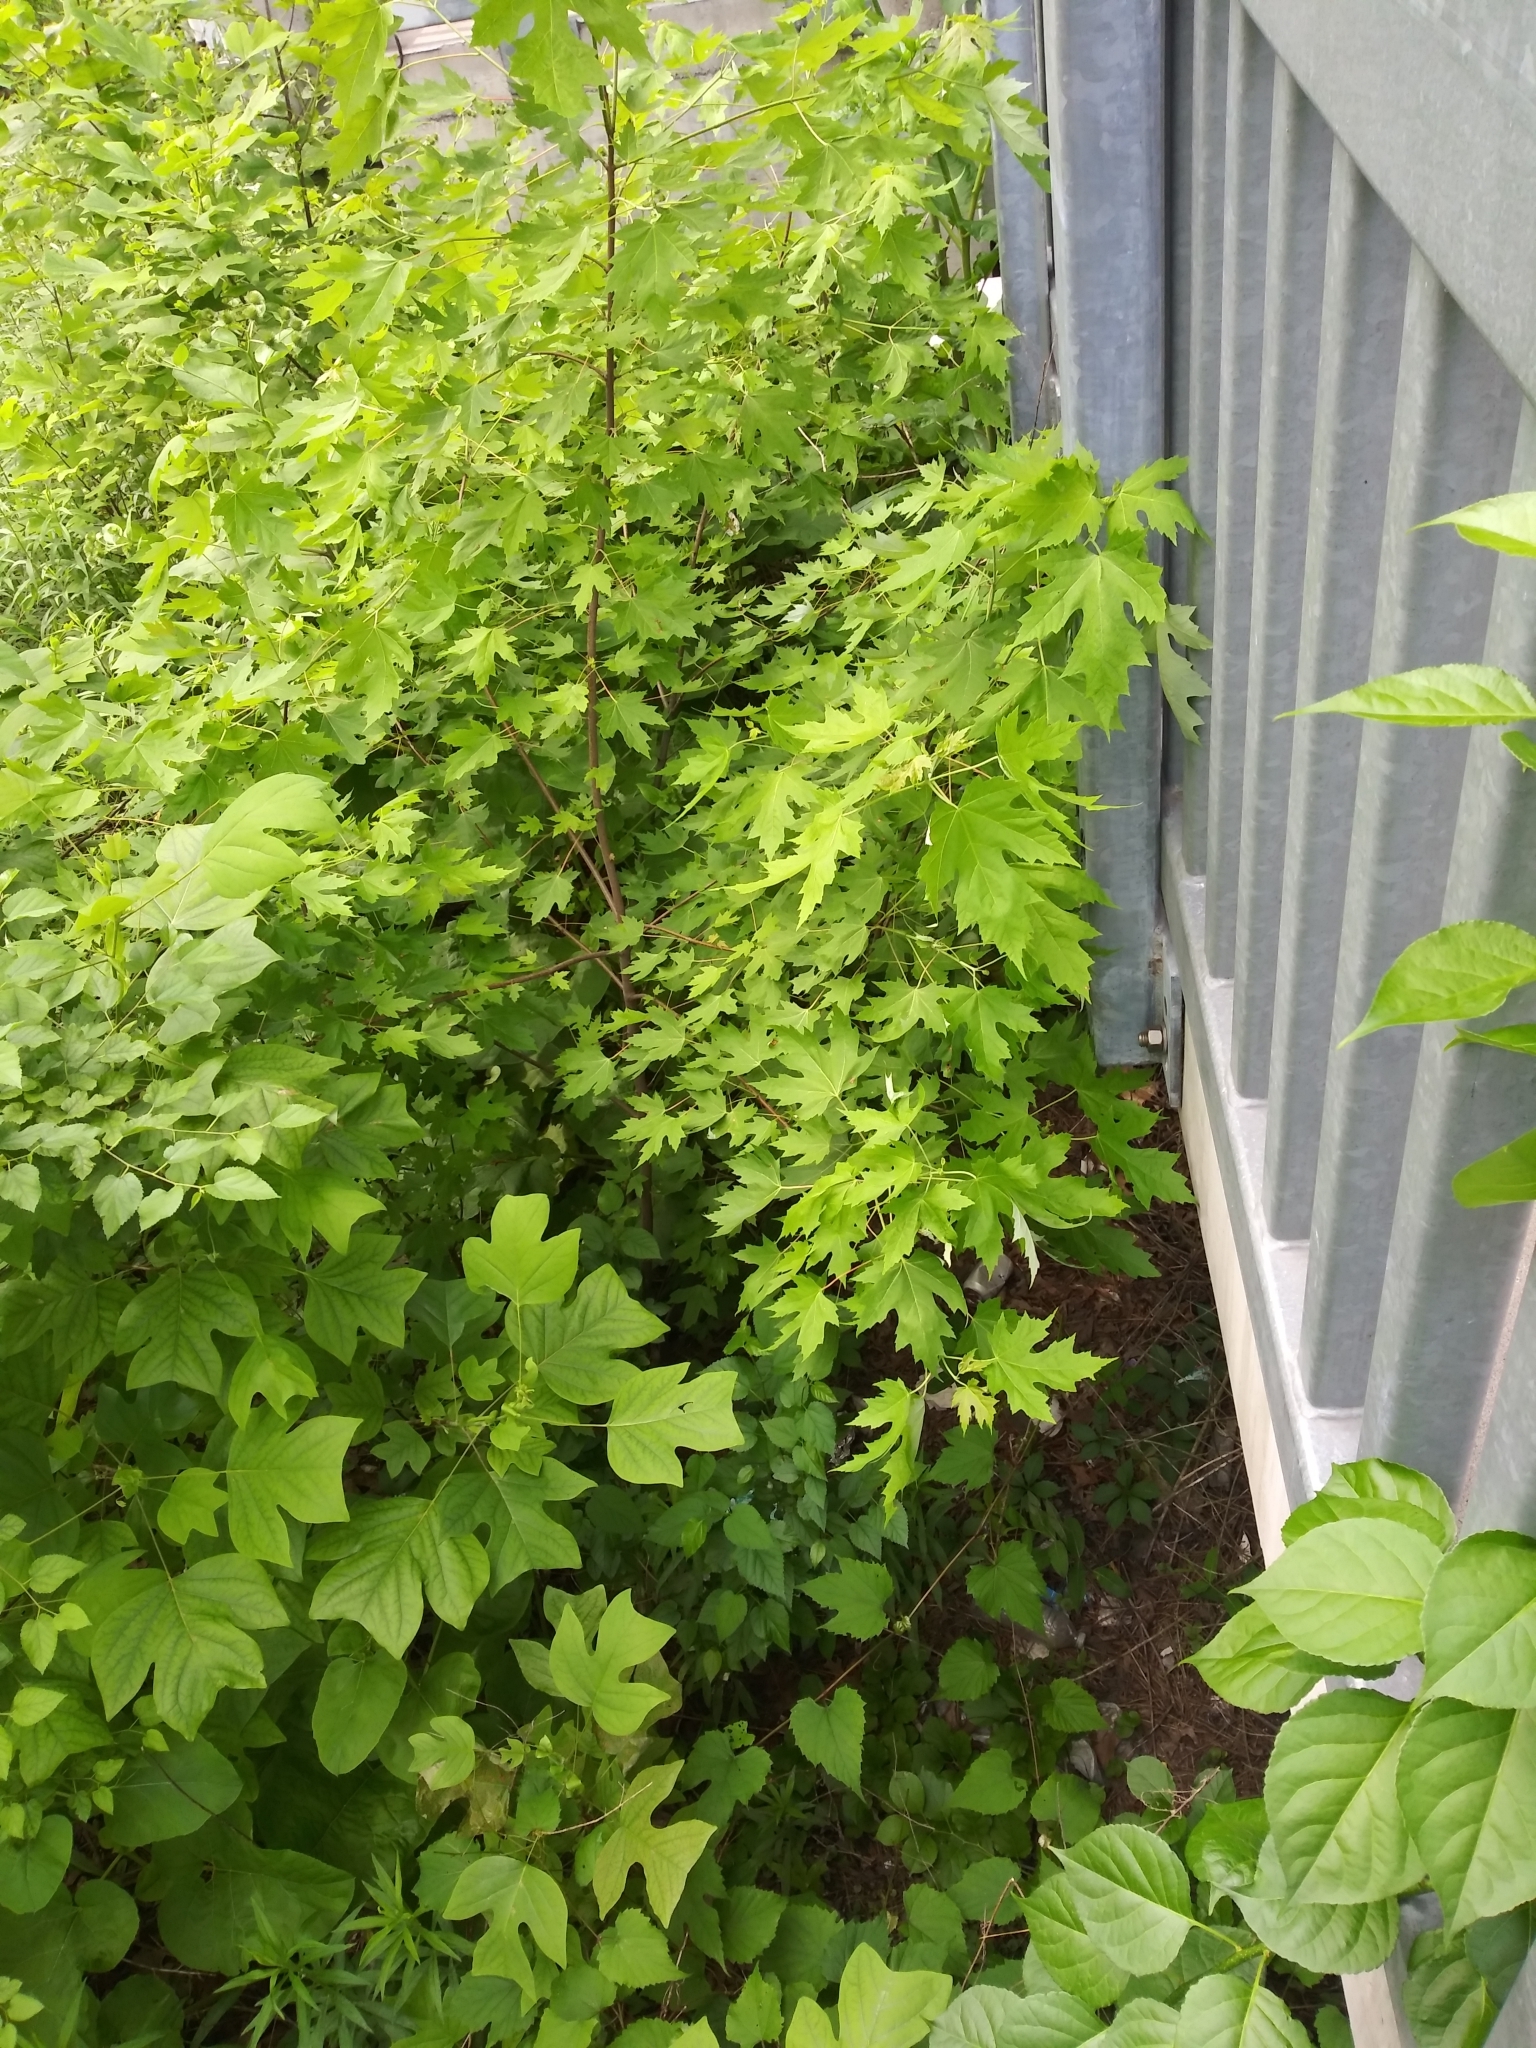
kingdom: Plantae
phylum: Tracheophyta
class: Magnoliopsida
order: Sapindales
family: Sapindaceae
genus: Acer
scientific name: Acer saccharinum
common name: Silver maple
